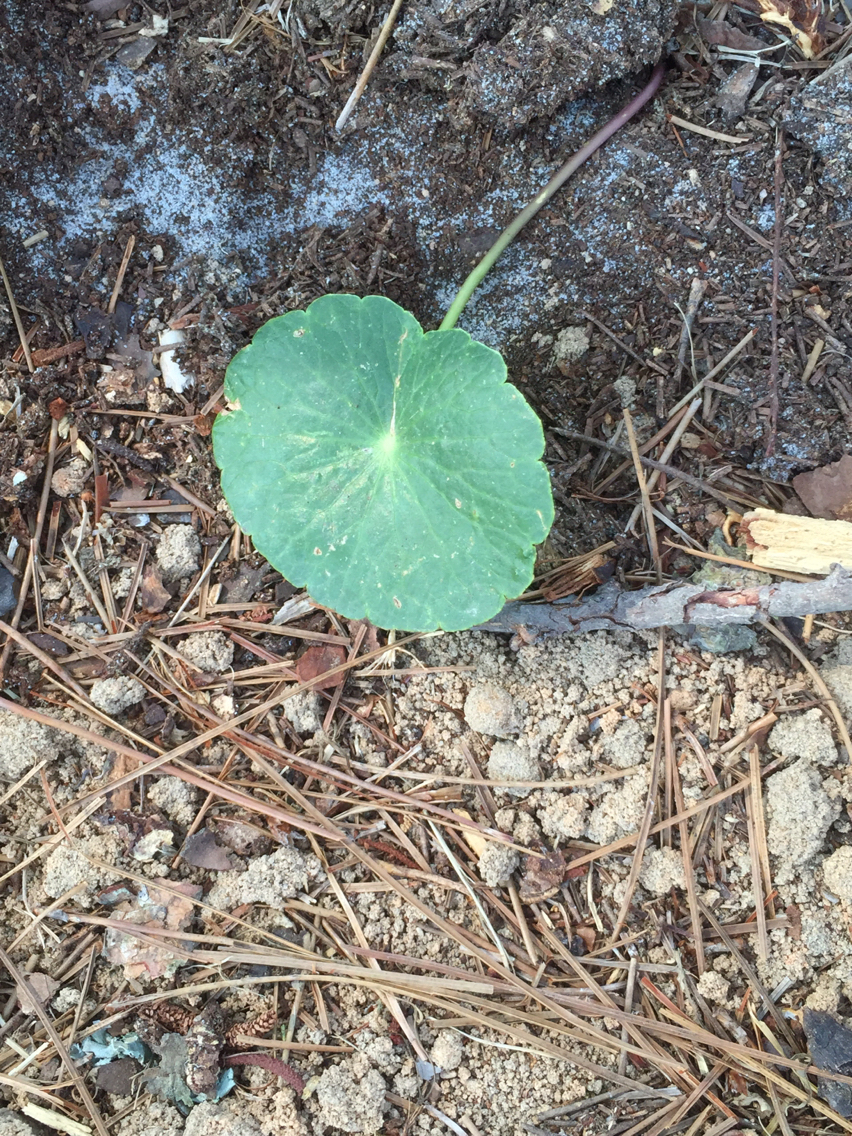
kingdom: Plantae
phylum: Tracheophyta
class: Magnoliopsida
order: Apiales
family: Araliaceae
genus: Hydrocotyle
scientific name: Hydrocotyle umbellata
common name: Water pennywort
